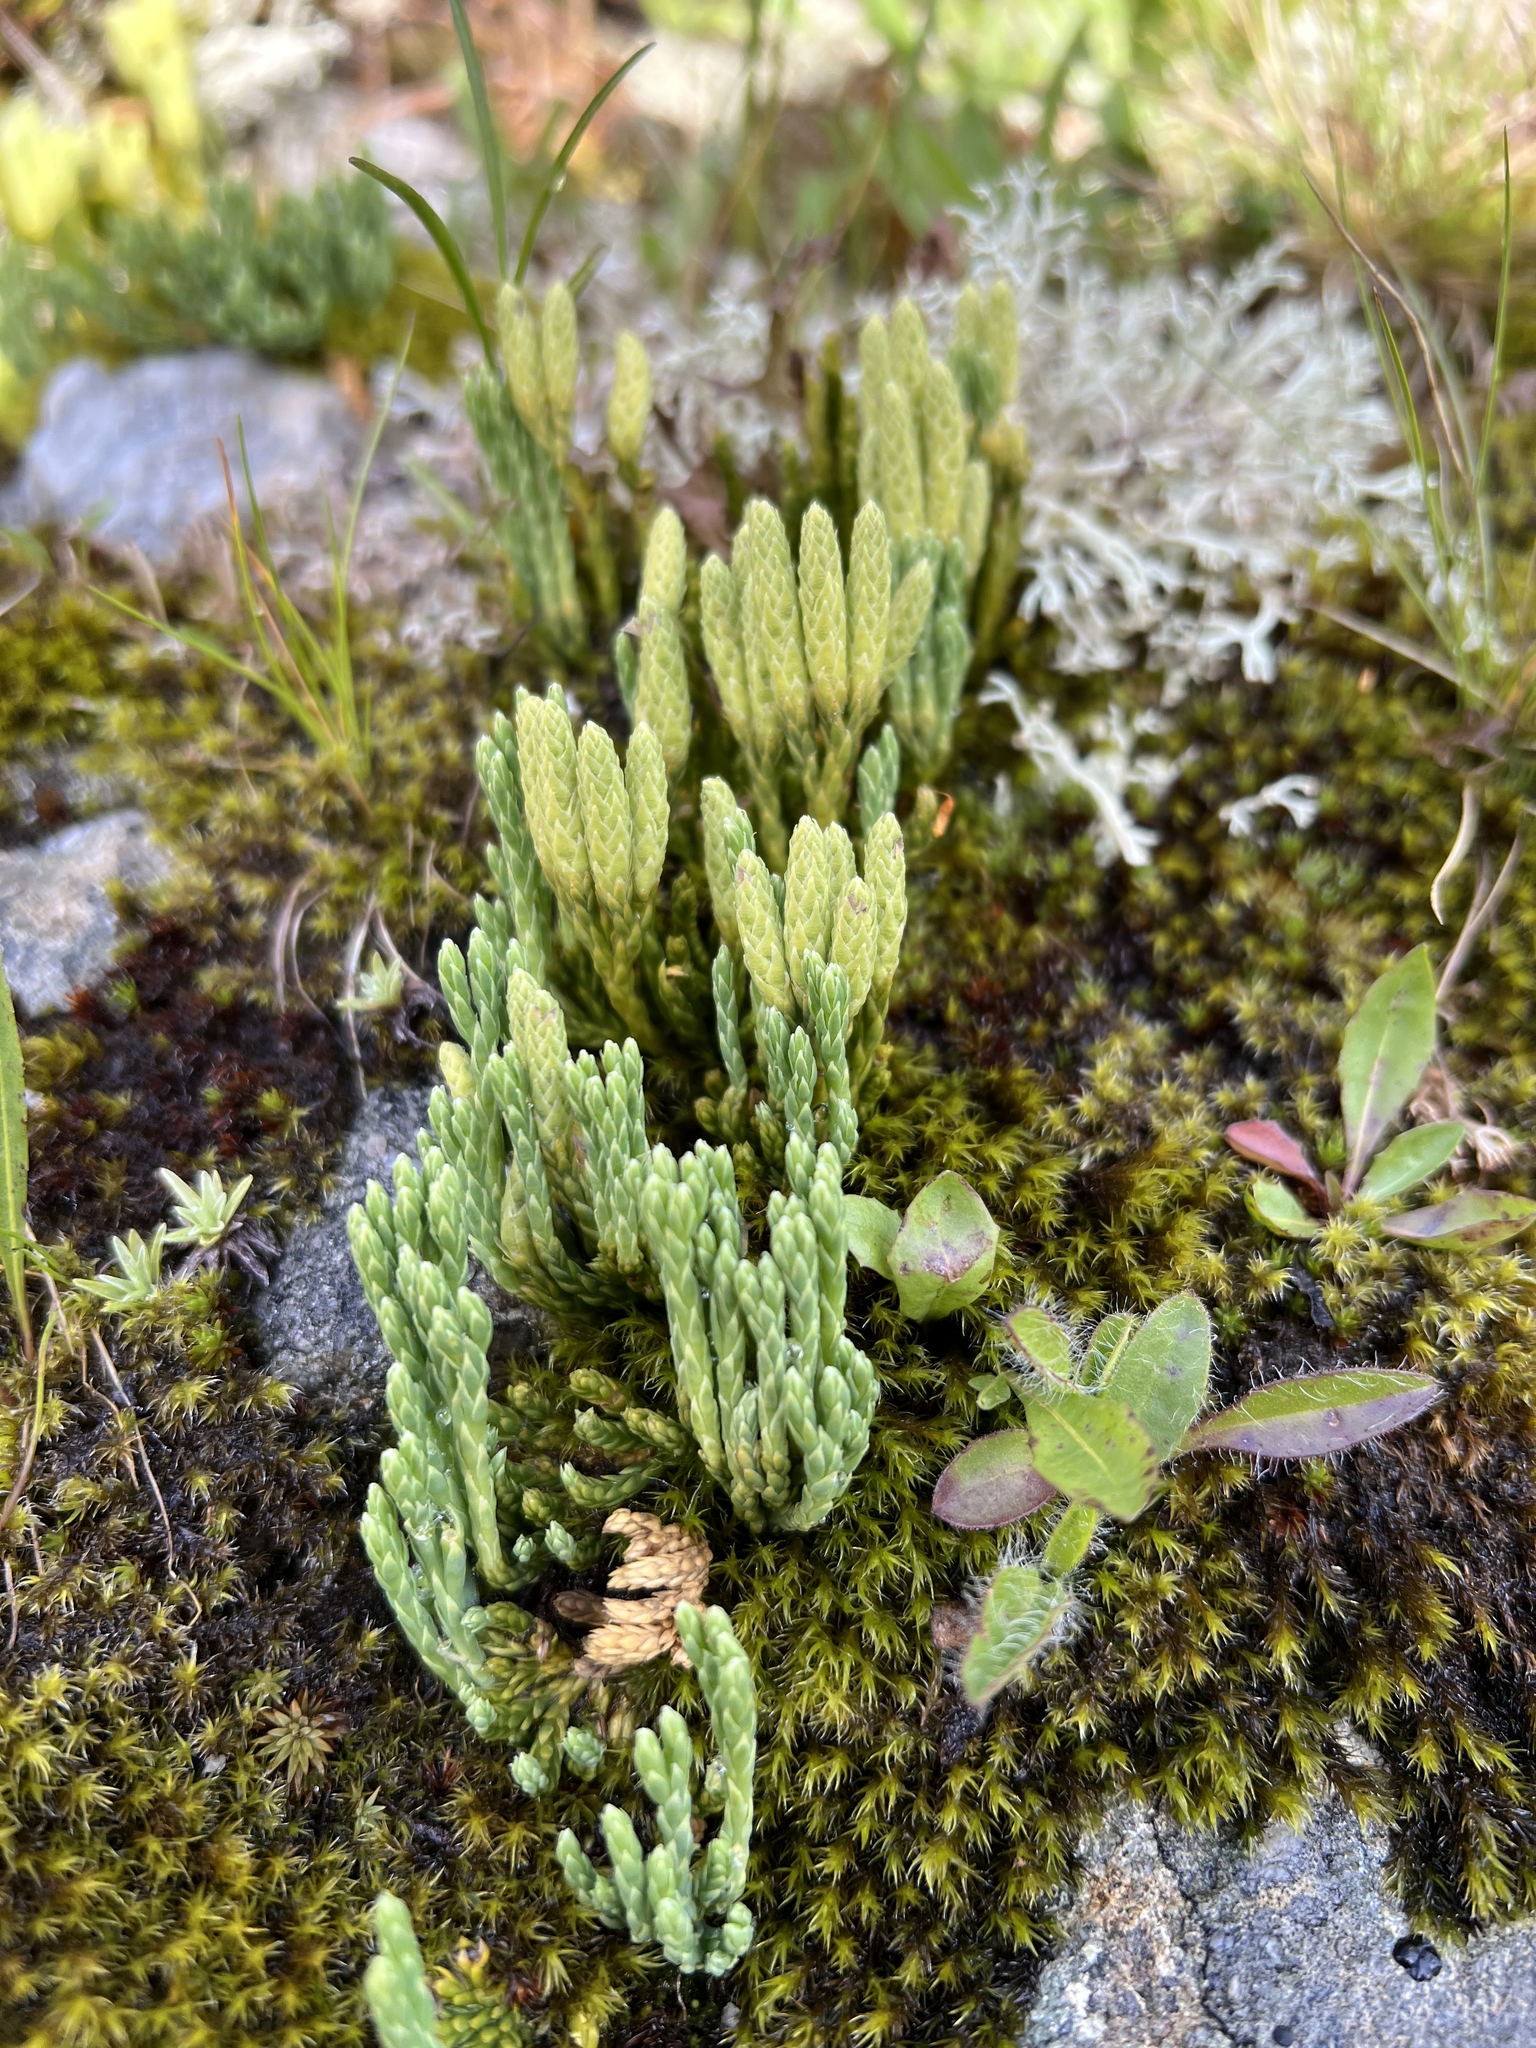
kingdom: Plantae
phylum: Tracheophyta
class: Lycopodiopsida
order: Lycopodiales
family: Lycopodiaceae
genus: Diphasiastrum
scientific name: Diphasiastrum alpinum
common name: Alpine clubmoss
